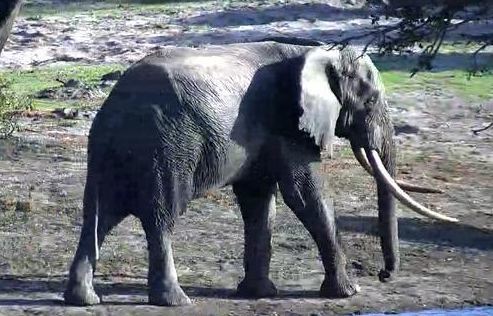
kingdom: Animalia
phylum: Chordata
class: Mammalia
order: Proboscidea
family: Elephantidae
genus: Loxodonta
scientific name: Loxodonta africana
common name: African elephant
